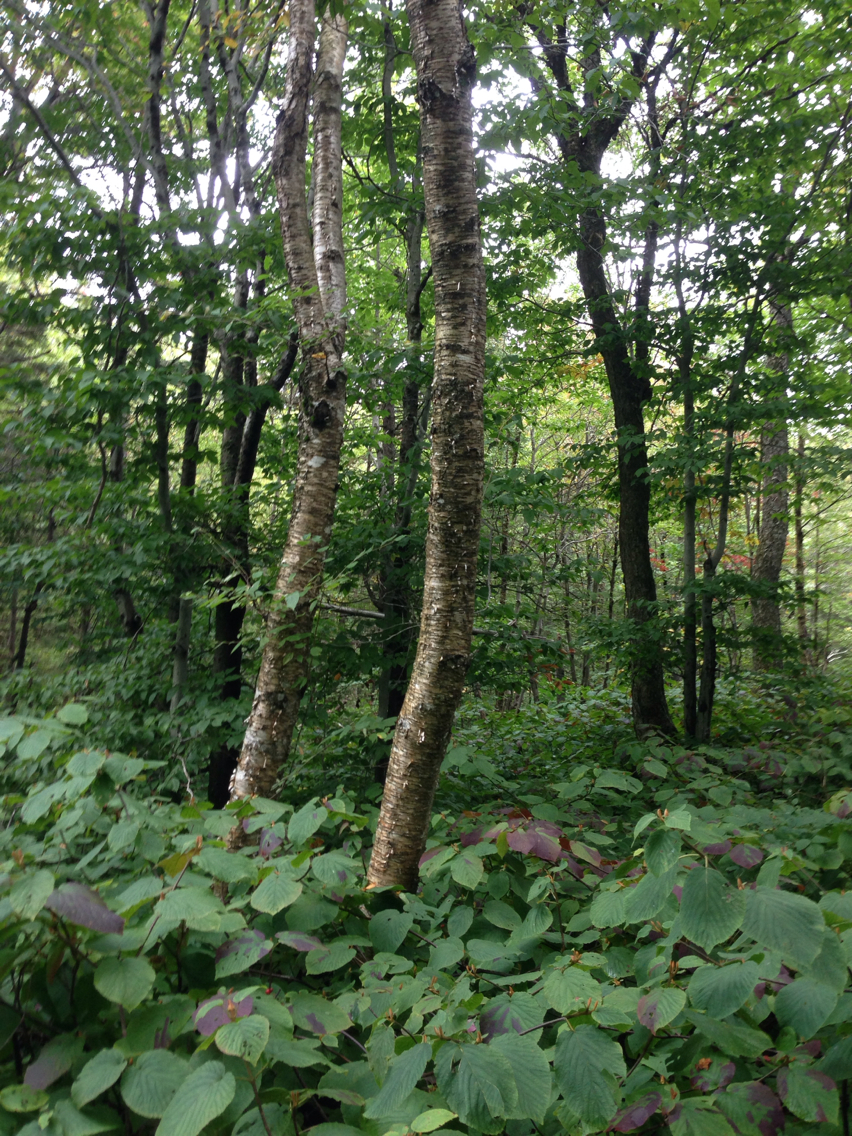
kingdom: Plantae
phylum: Tracheophyta
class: Magnoliopsida
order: Fagales
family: Betulaceae
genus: Betula
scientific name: Betula alleghaniensis
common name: Yellow birch
